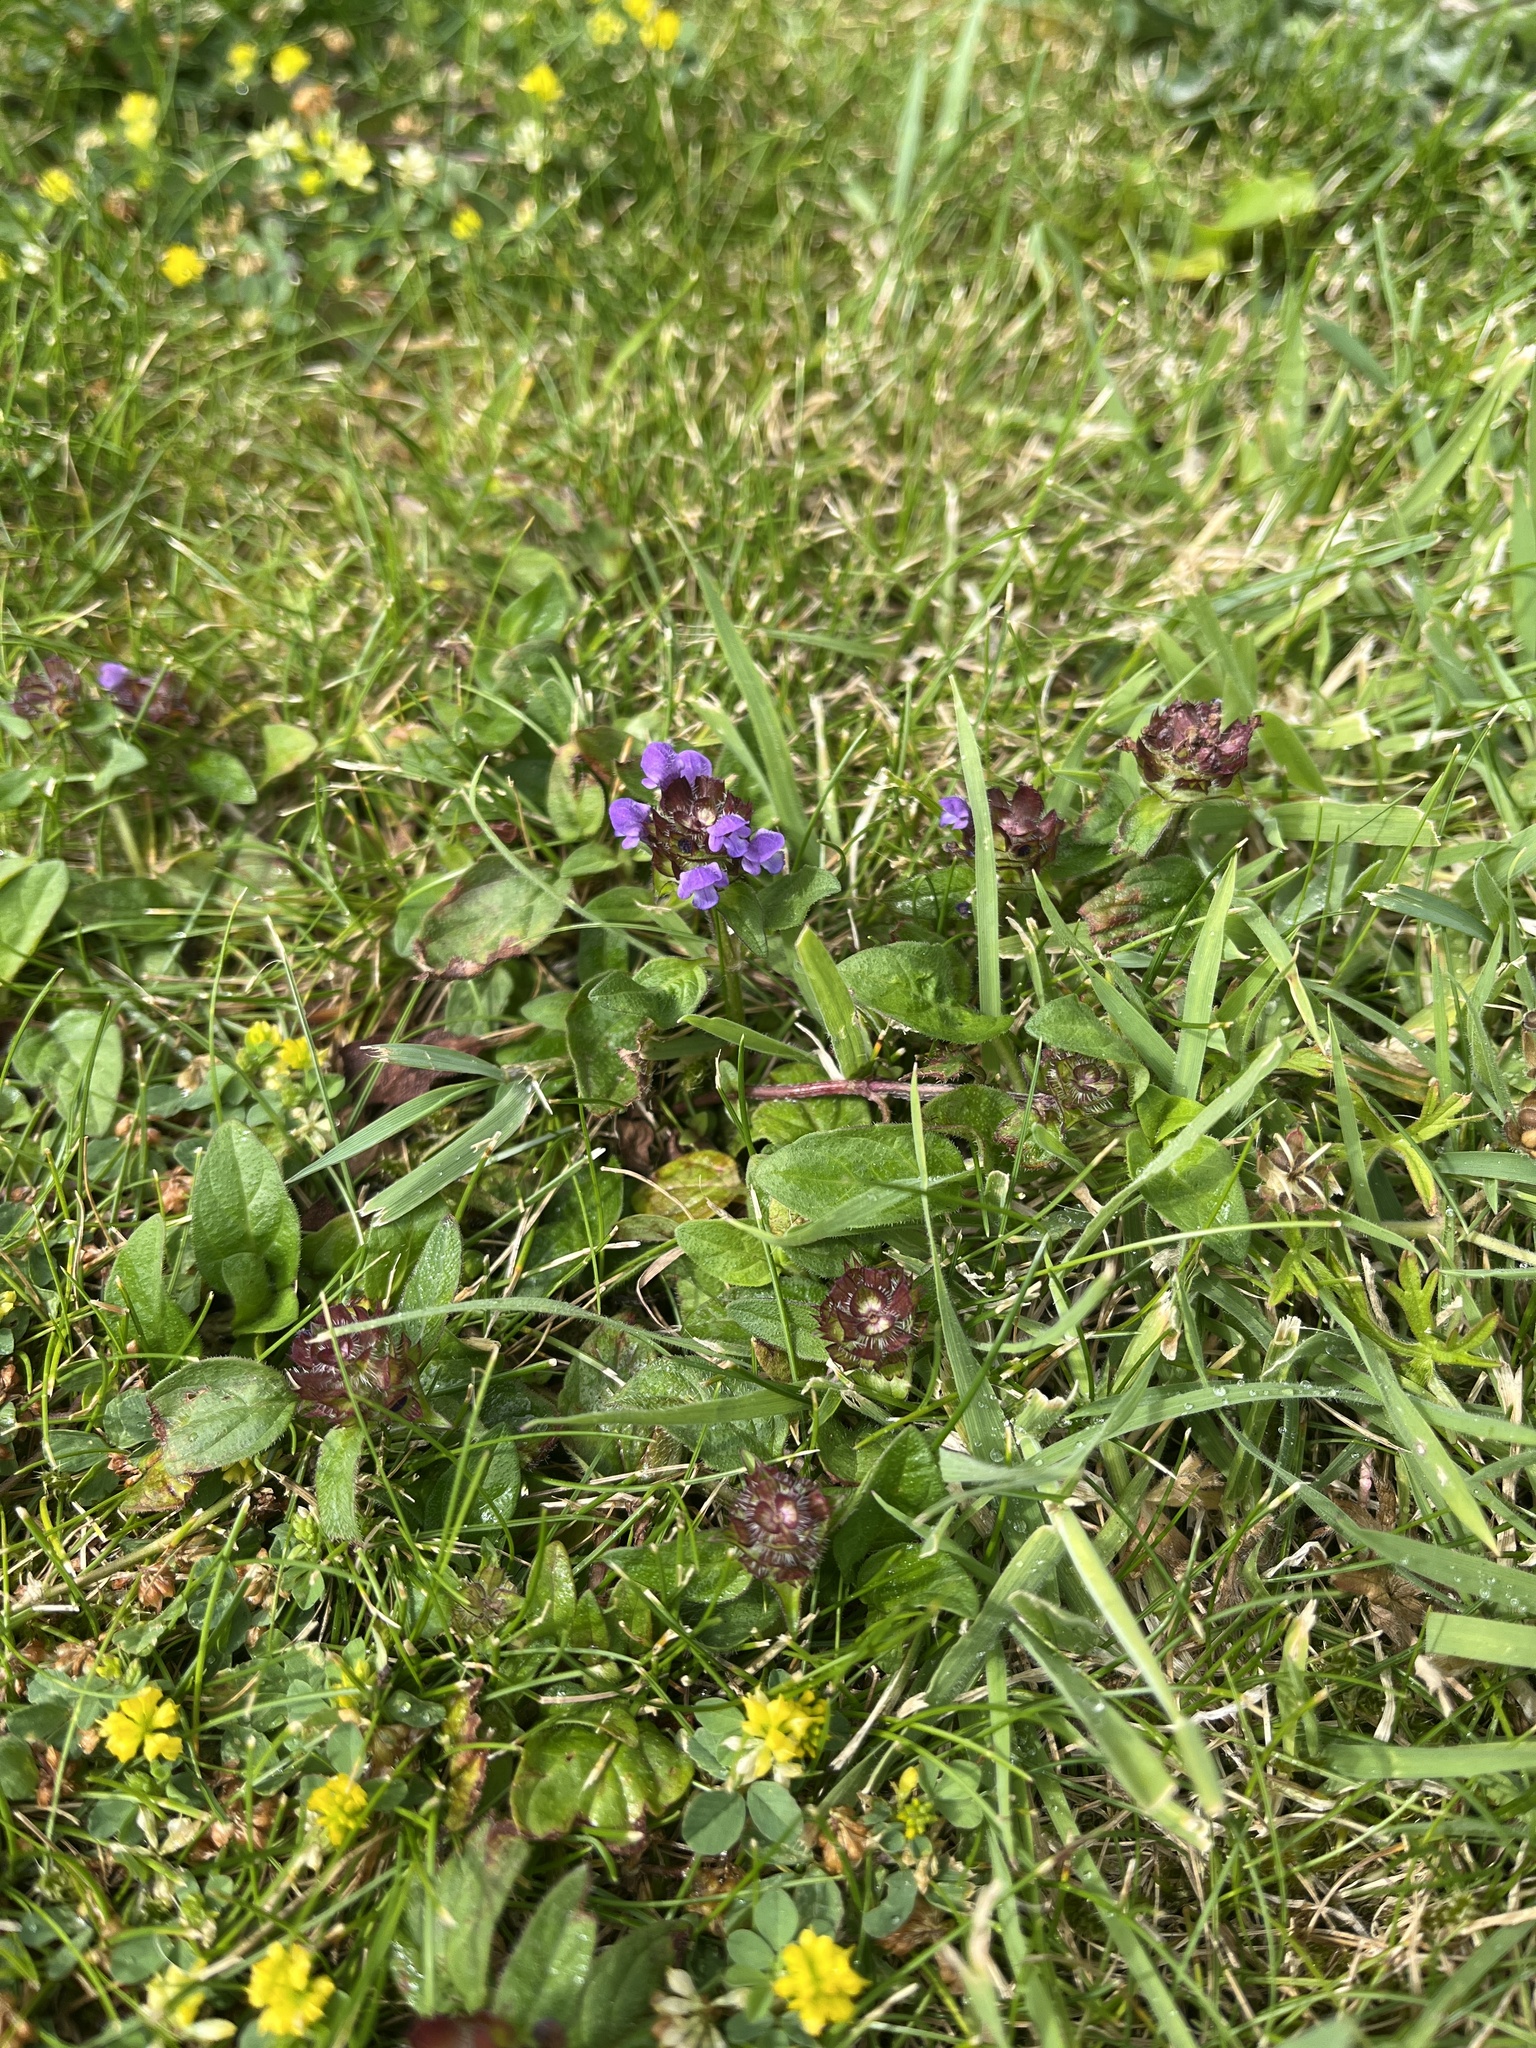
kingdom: Plantae
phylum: Tracheophyta
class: Magnoliopsida
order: Lamiales
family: Lamiaceae
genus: Prunella
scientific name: Prunella vulgaris
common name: Heal-all
